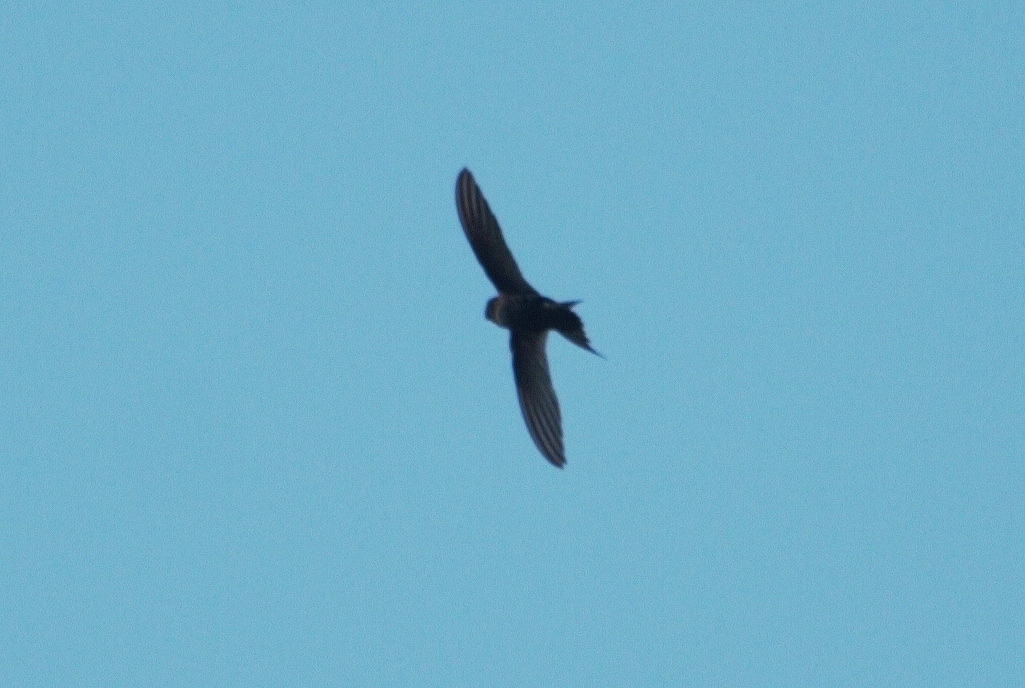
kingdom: Animalia
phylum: Chordata
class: Aves
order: Apodiformes
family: Apodidae
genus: Apus
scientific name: Apus caffer
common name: White-rumped swift
